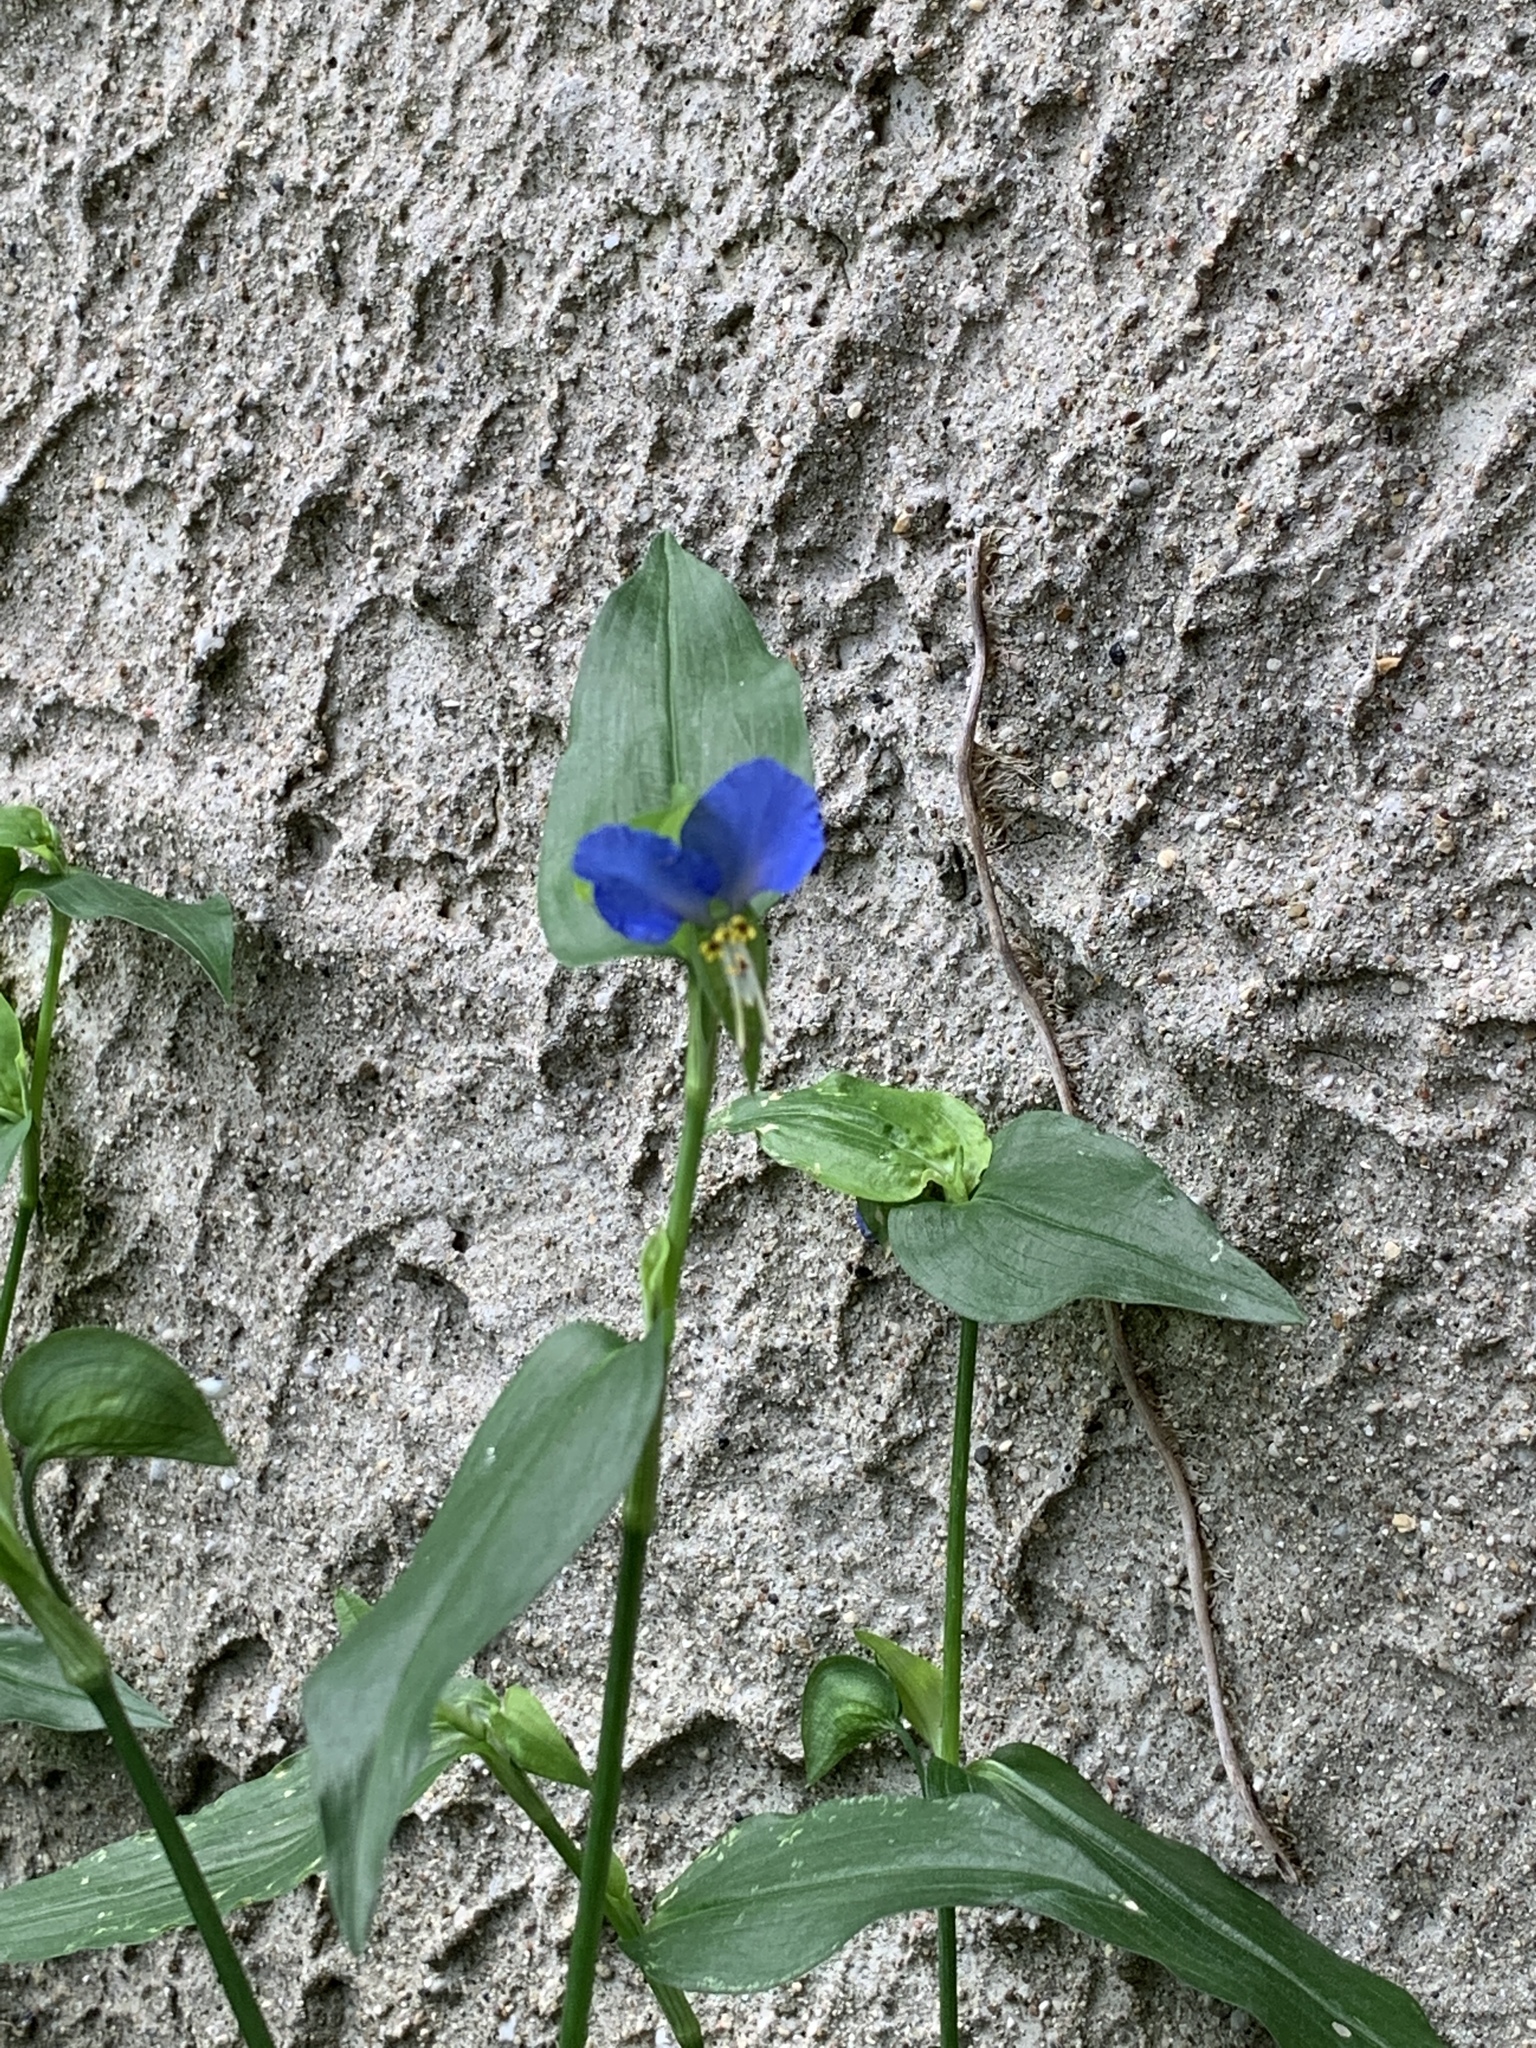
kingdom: Plantae
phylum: Tracheophyta
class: Liliopsida
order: Commelinales
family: Commelinaceae
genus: Commelina
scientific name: Commelina communis
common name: Asiatic dayflower
